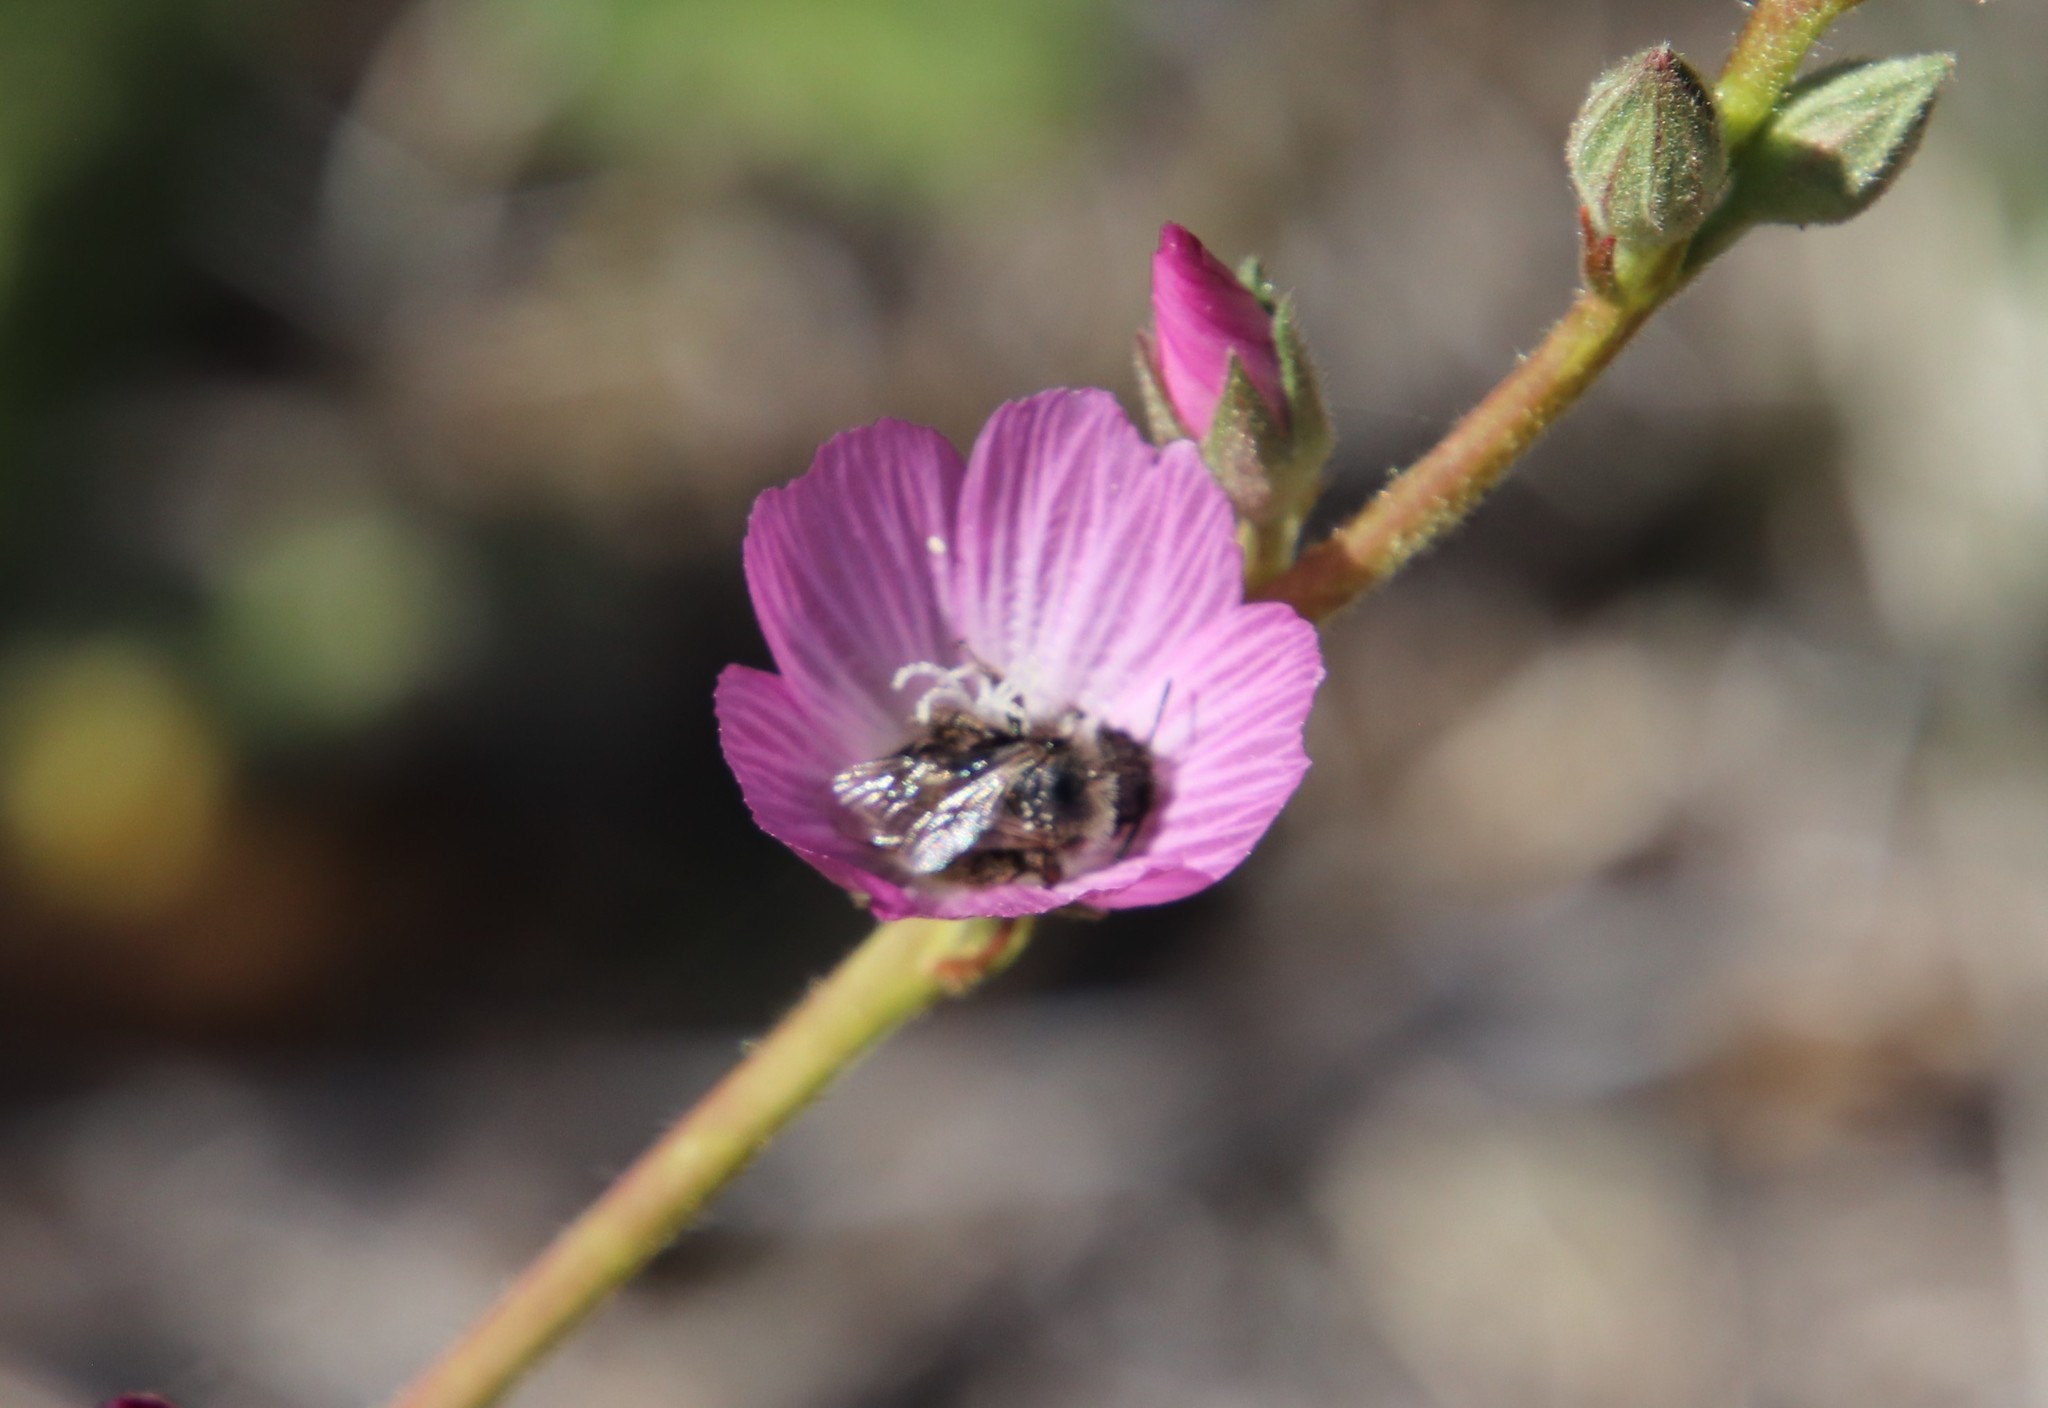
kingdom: Animalia
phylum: Arthropoda
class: Insecta
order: Hymenoptera
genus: Coquillettapis
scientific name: Coquillettapis
